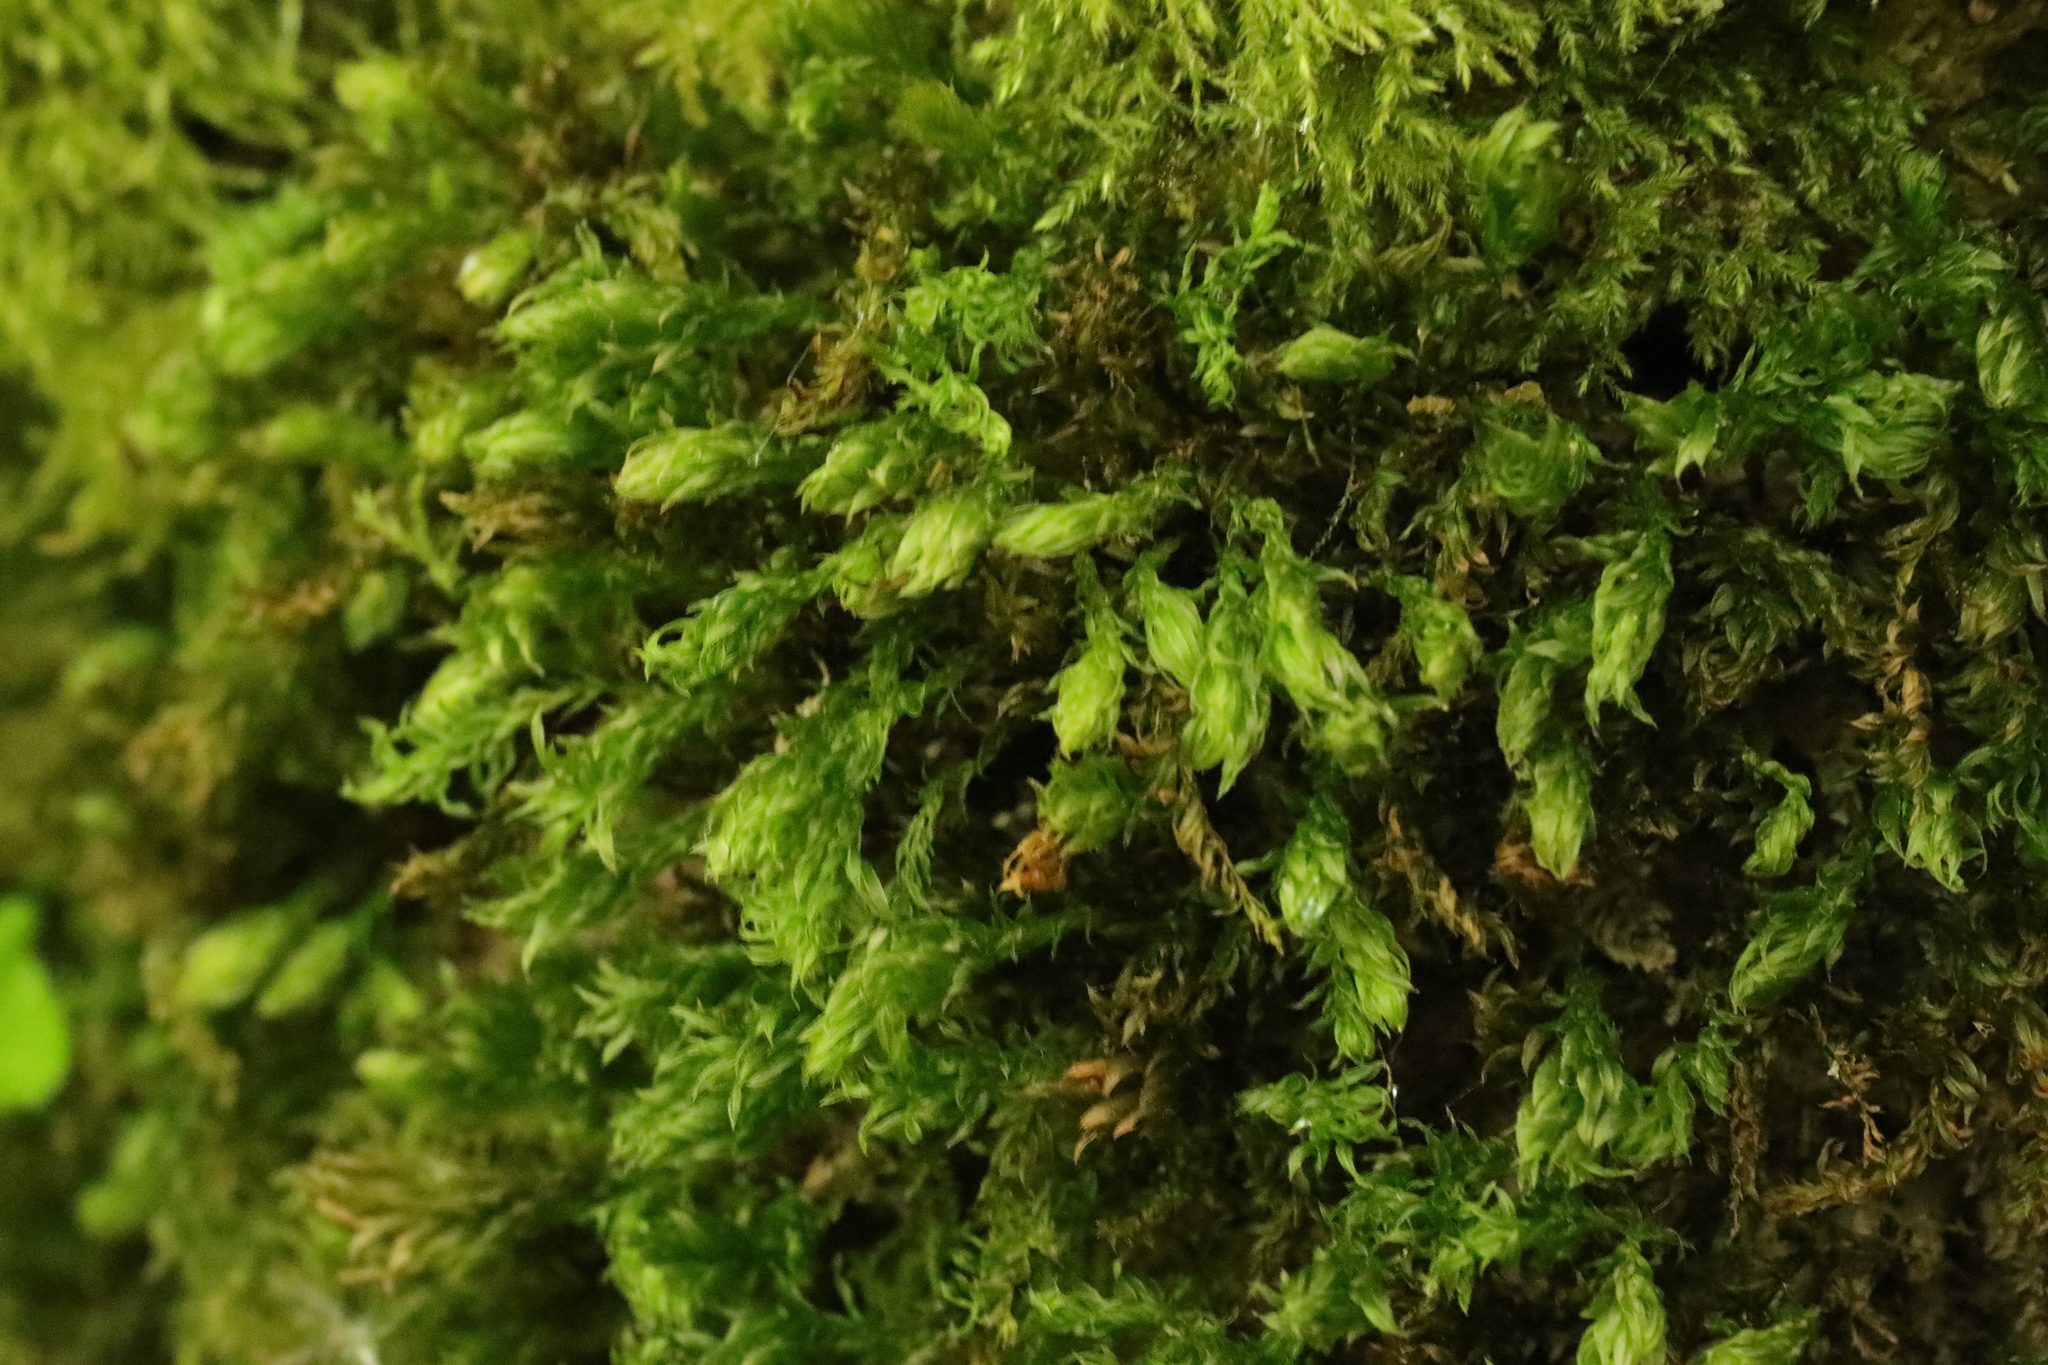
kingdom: Plantae
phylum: Bryophyta
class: Bryopsida
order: Bryales
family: Mniaceae
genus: Mnium
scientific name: Mnium hornum
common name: Swan's-neck leafy moss
